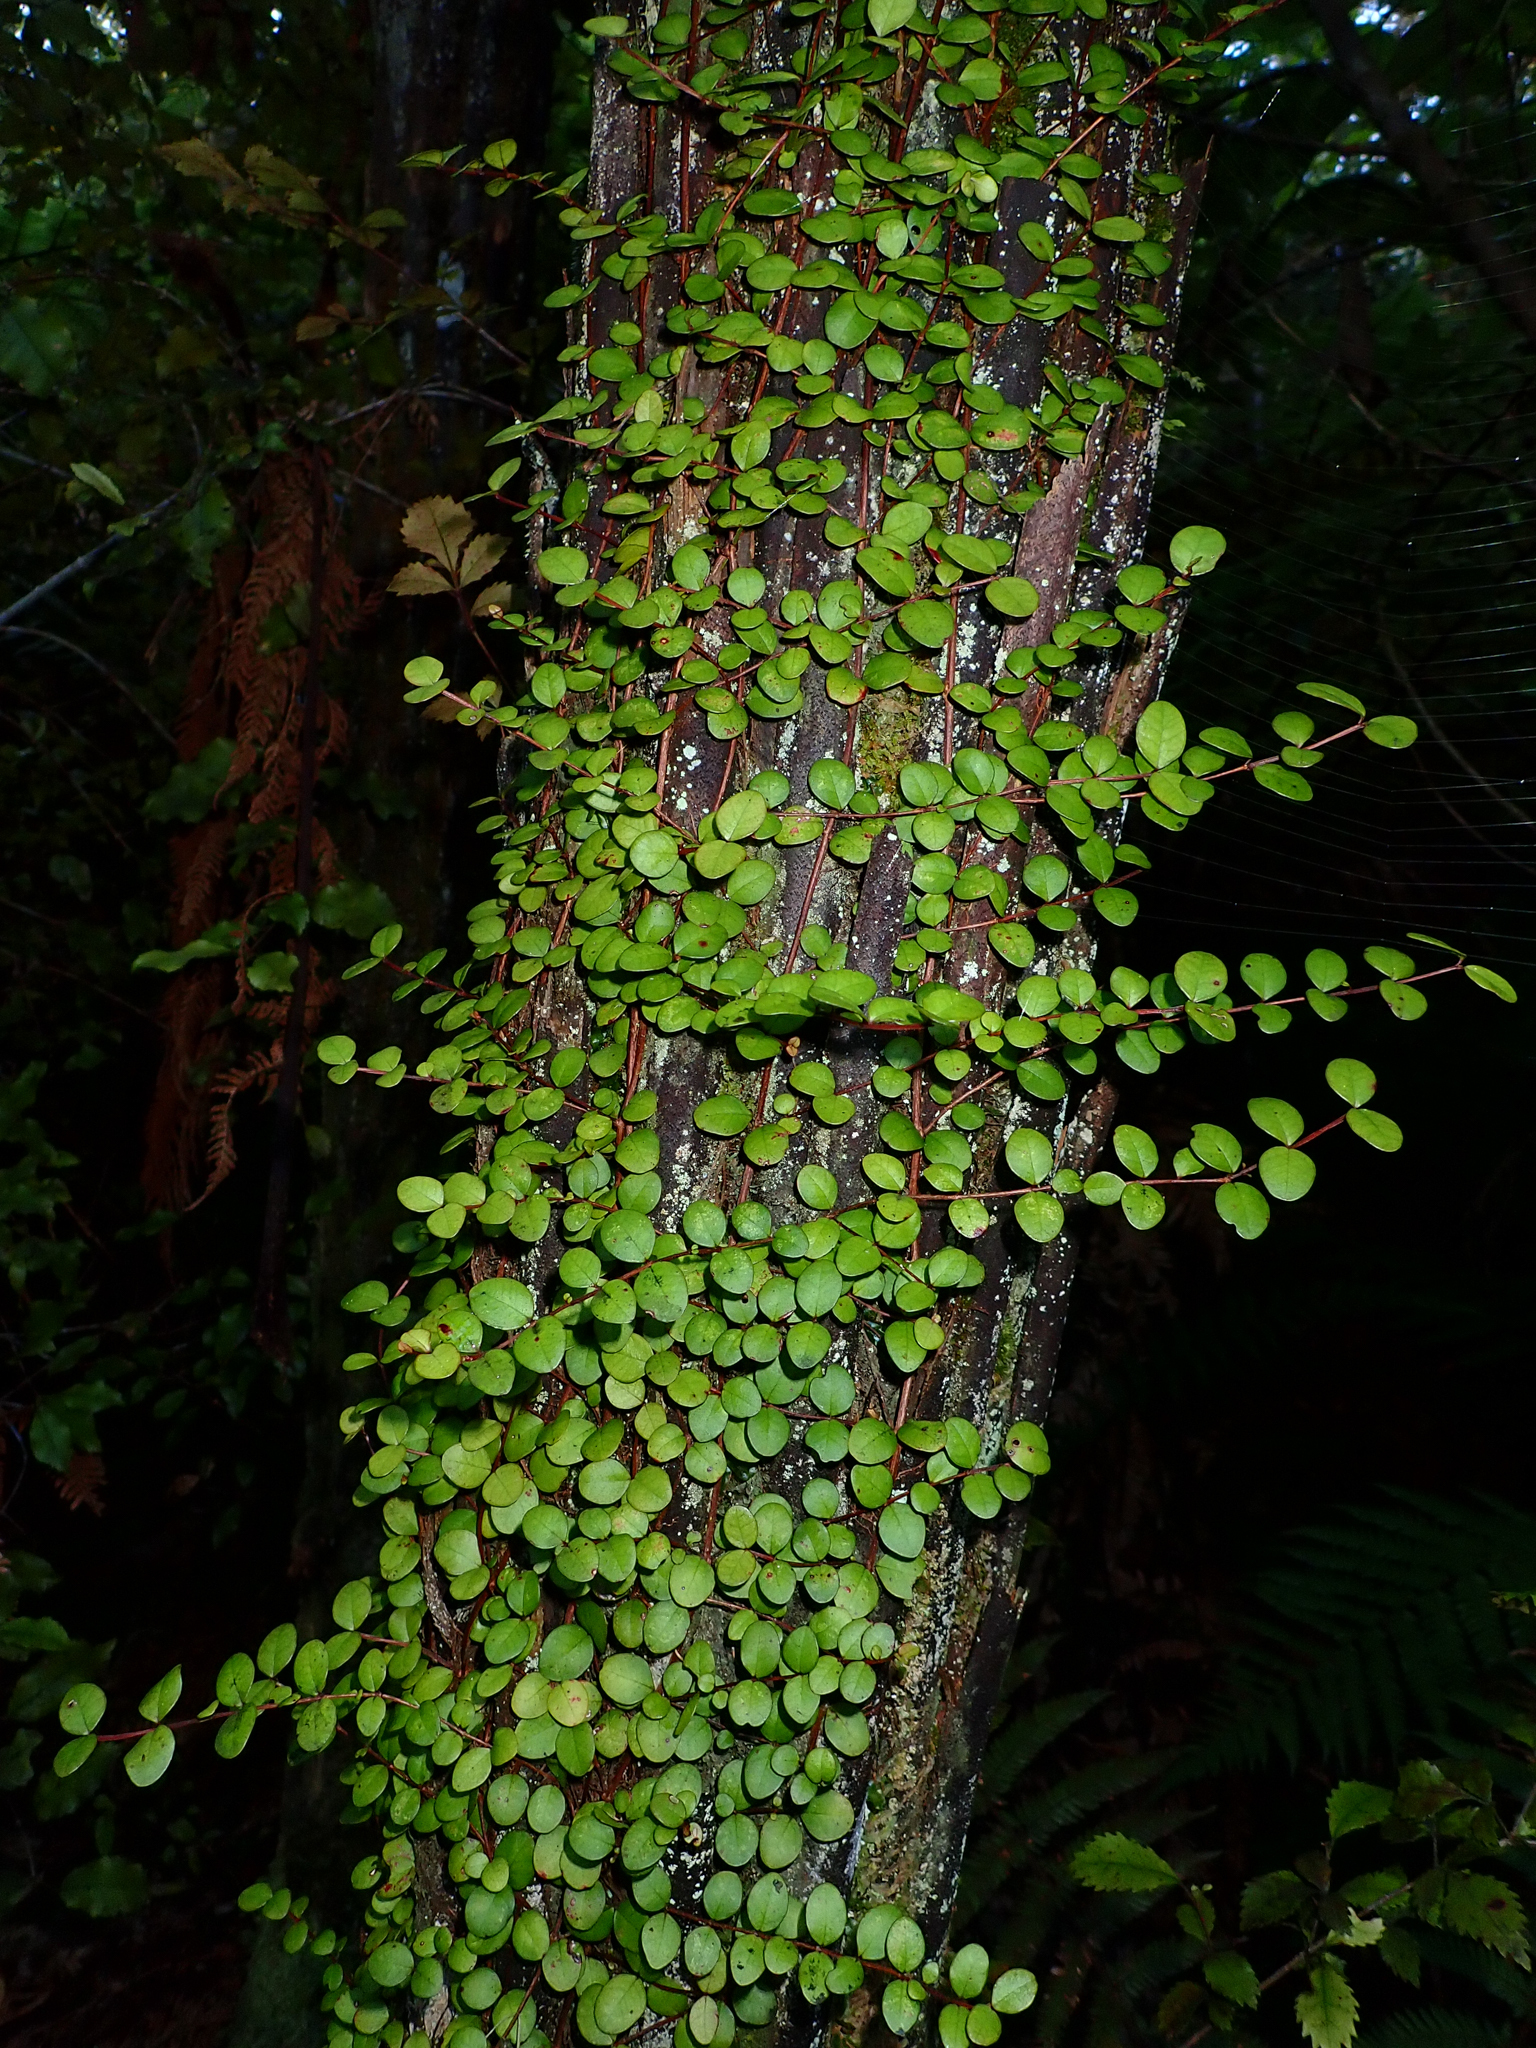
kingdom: Plantae
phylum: Tracheophyta
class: Magnoliopsida
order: Myrtales
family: Myrtaceae
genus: Metrosideros
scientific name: Metrosideros perforata
